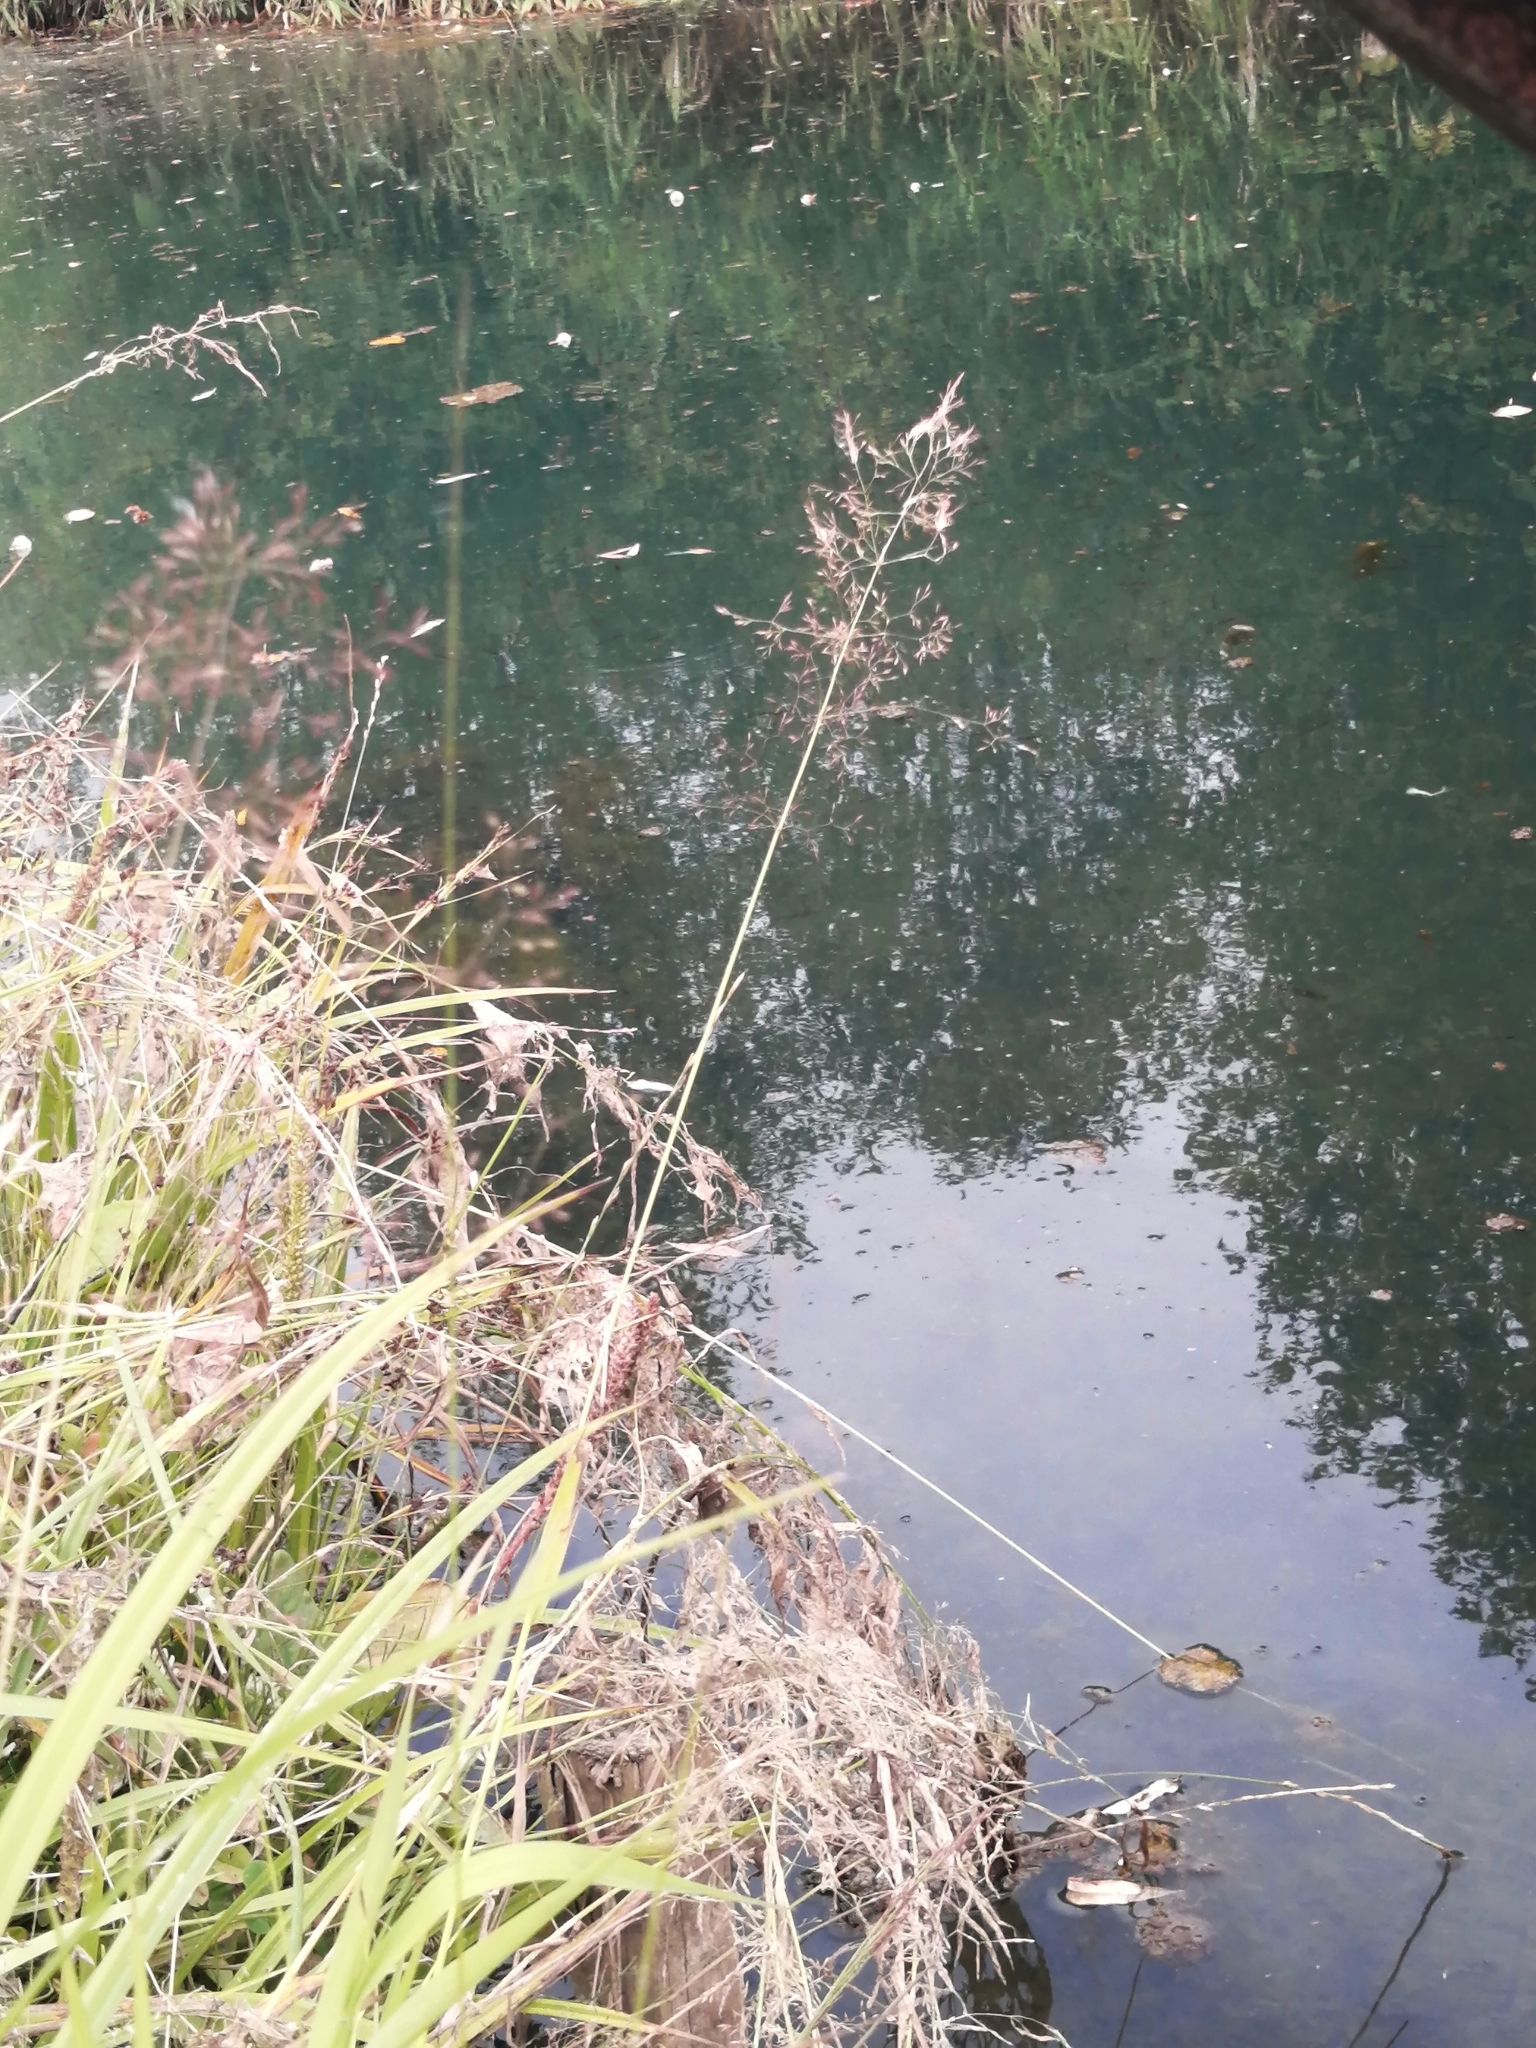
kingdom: Plantae
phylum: Tracheophyta
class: Liliopsida
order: Poales
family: Poaceae
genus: Agrostis
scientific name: Agrostis gigantea
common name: Black bent
